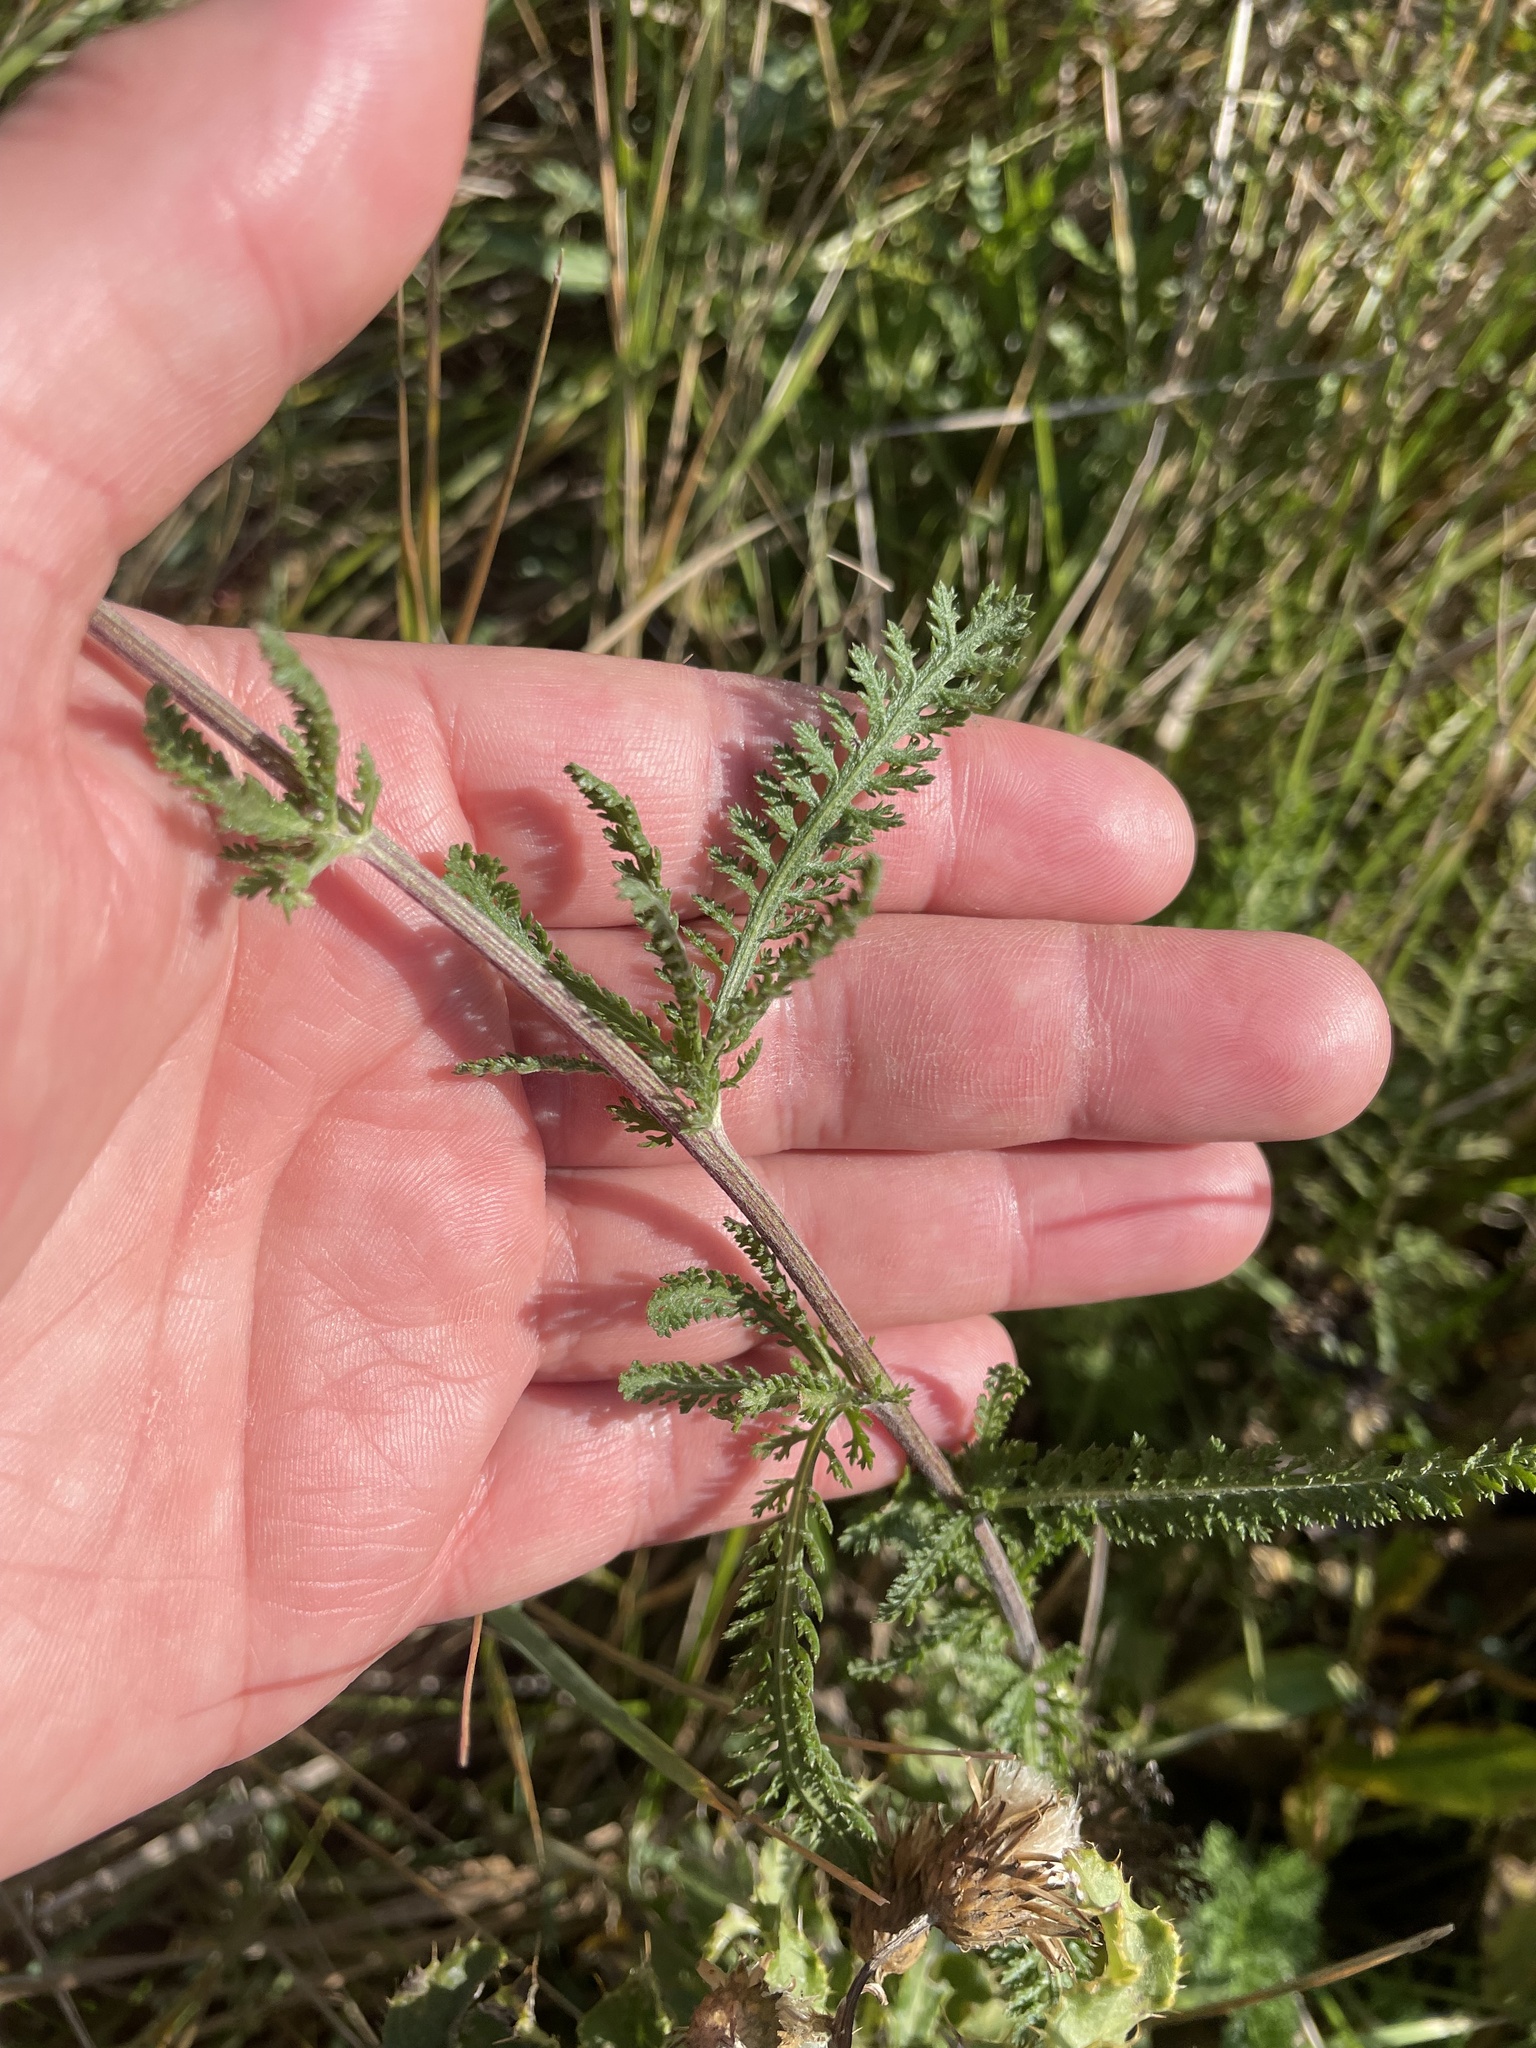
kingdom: Plantae
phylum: Tracheophyta
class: Magnoliopsida
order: Asterales
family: Asteraceae
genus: Achillea
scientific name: Achillea millefolium
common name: Yarrow
